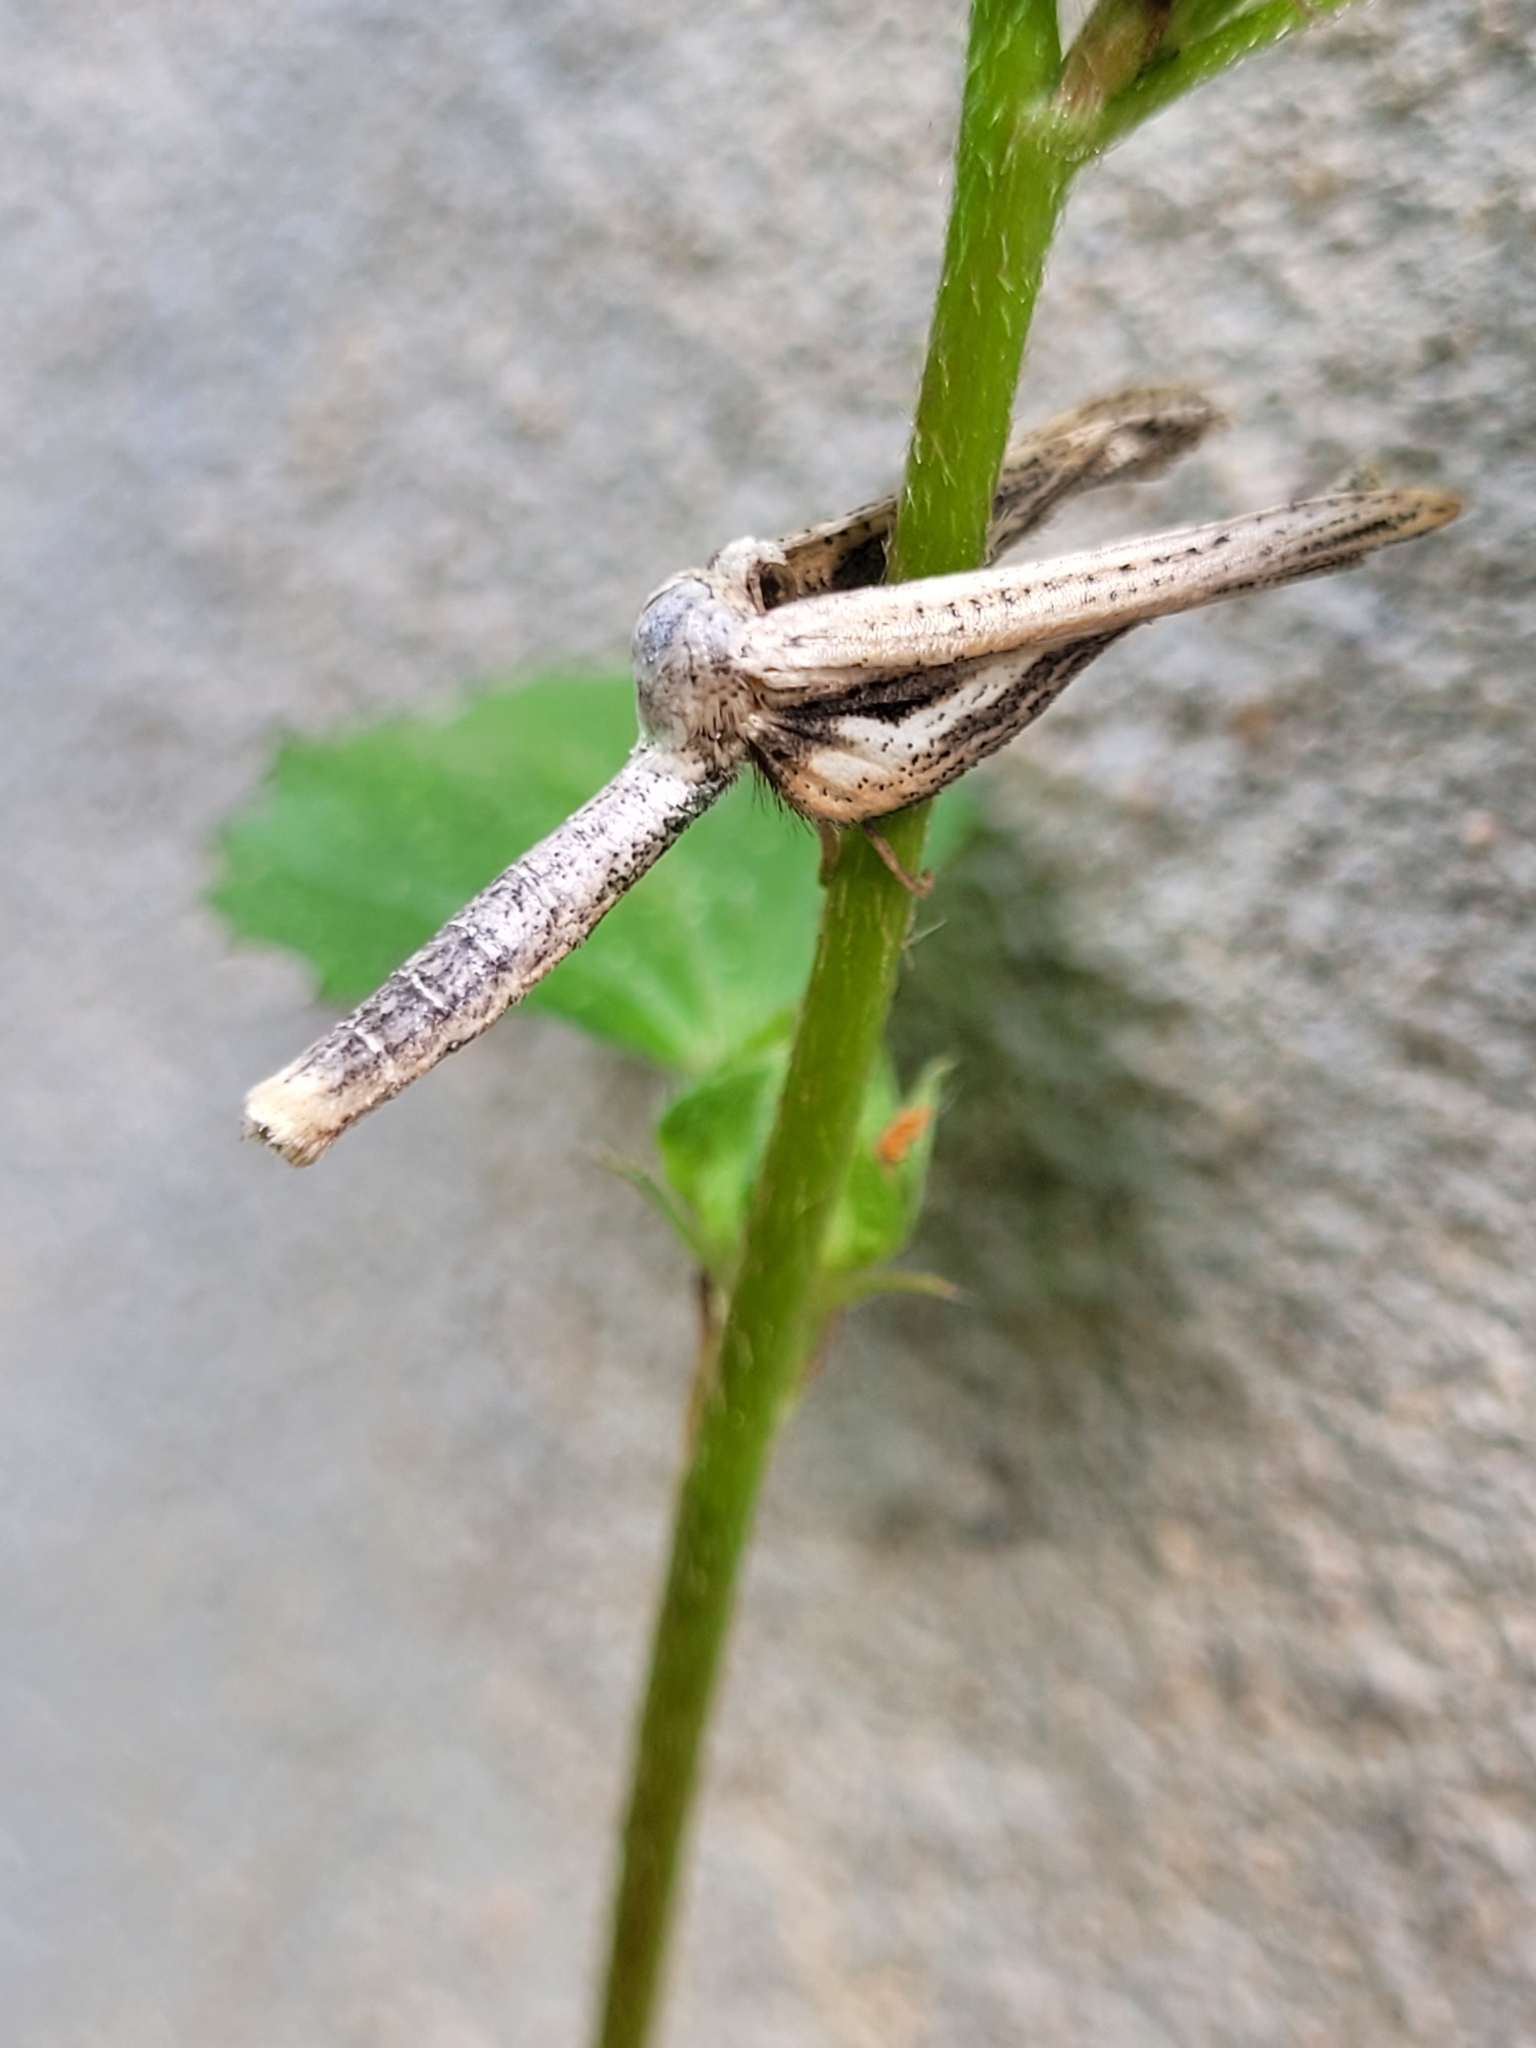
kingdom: Animalia
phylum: Arthropoda
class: Insecta
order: Lepidoptera
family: Thyrididae
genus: Meskea
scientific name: Meskea dyspteraria
